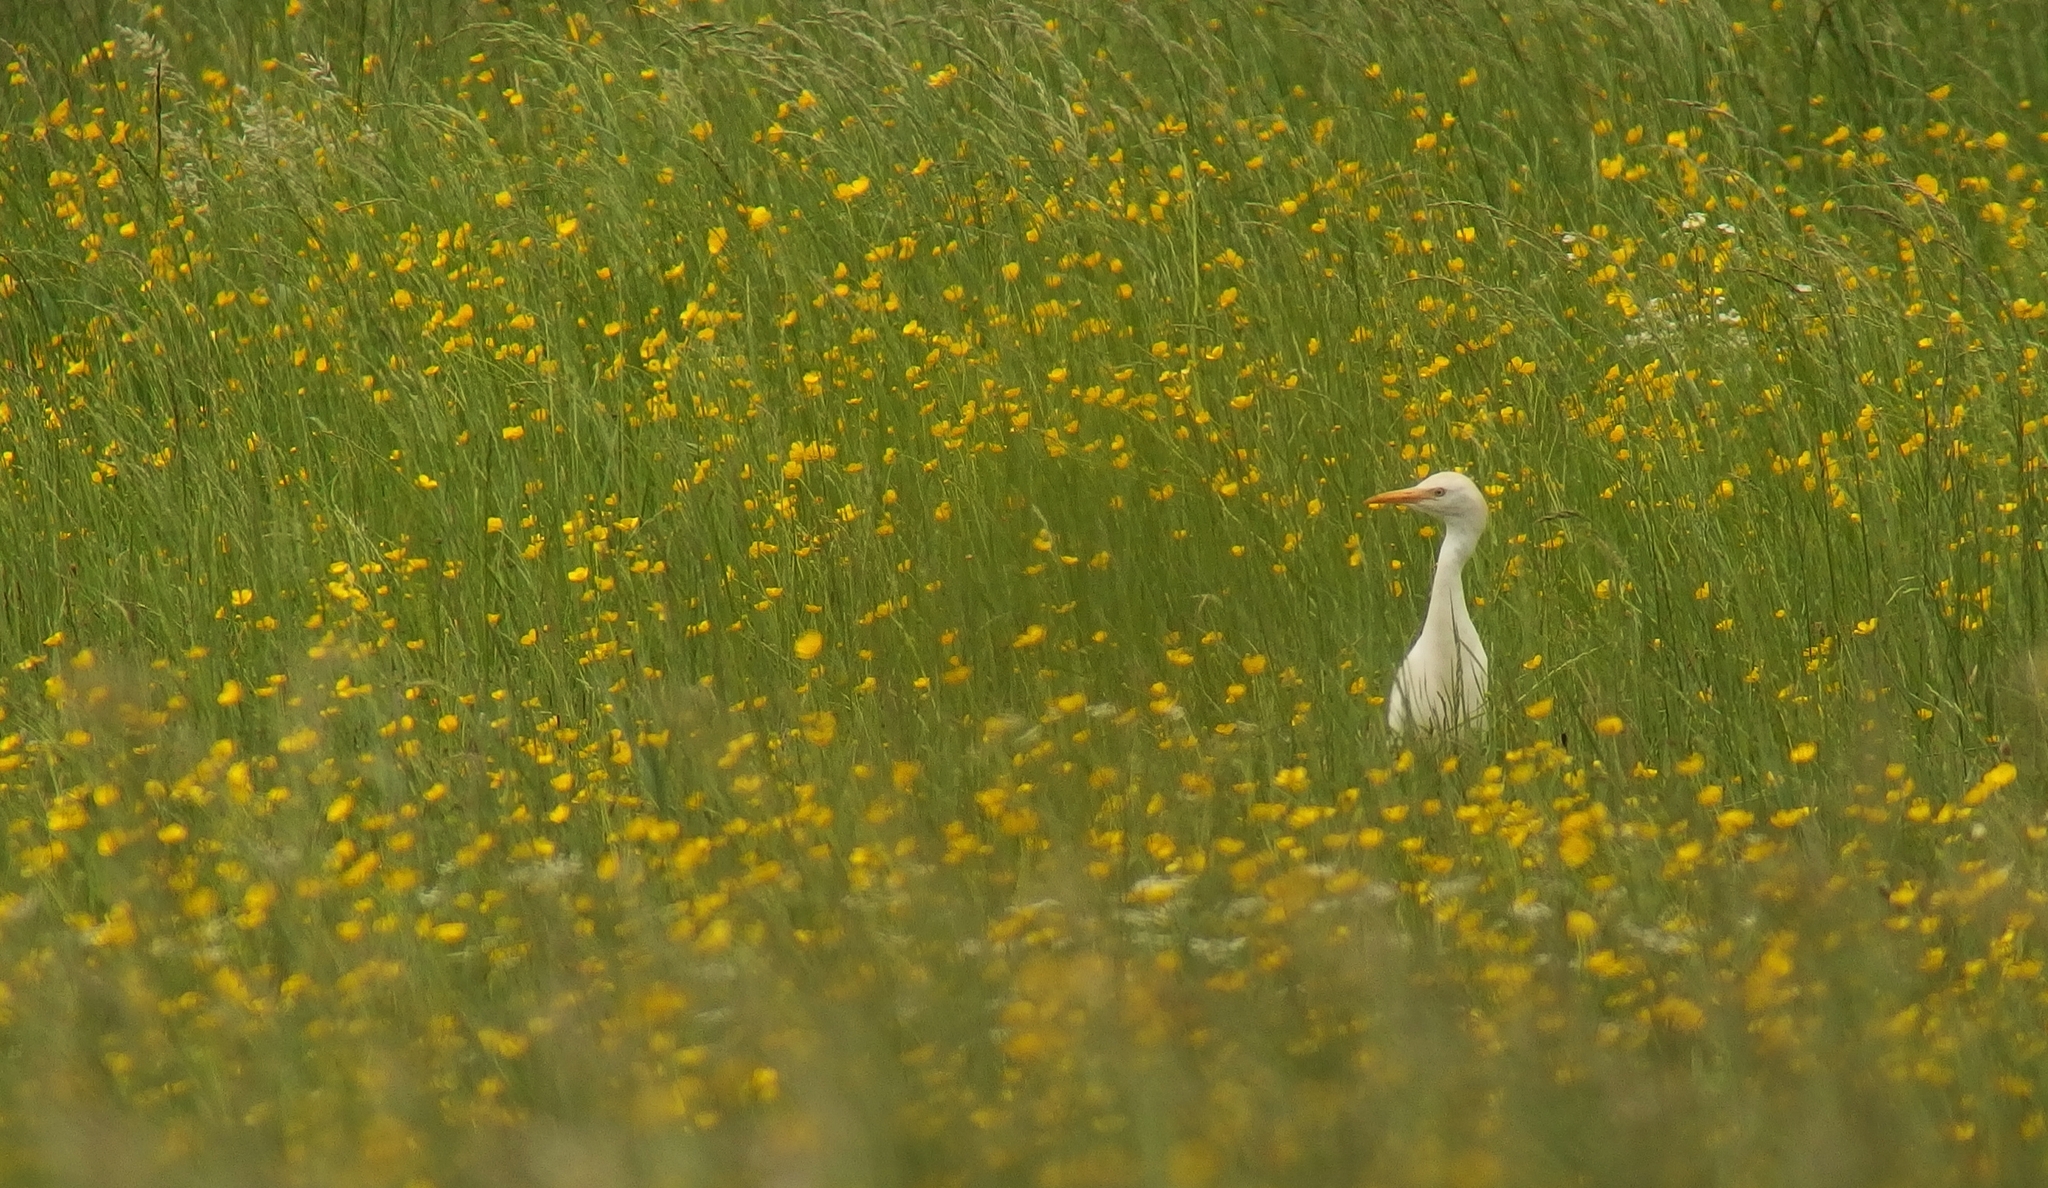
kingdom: Animalia
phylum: Chordata
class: Aves
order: Pelecaniformes
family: Ardeidae
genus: Bubulcus
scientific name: Bubulcus ibis
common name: Cattle egret
